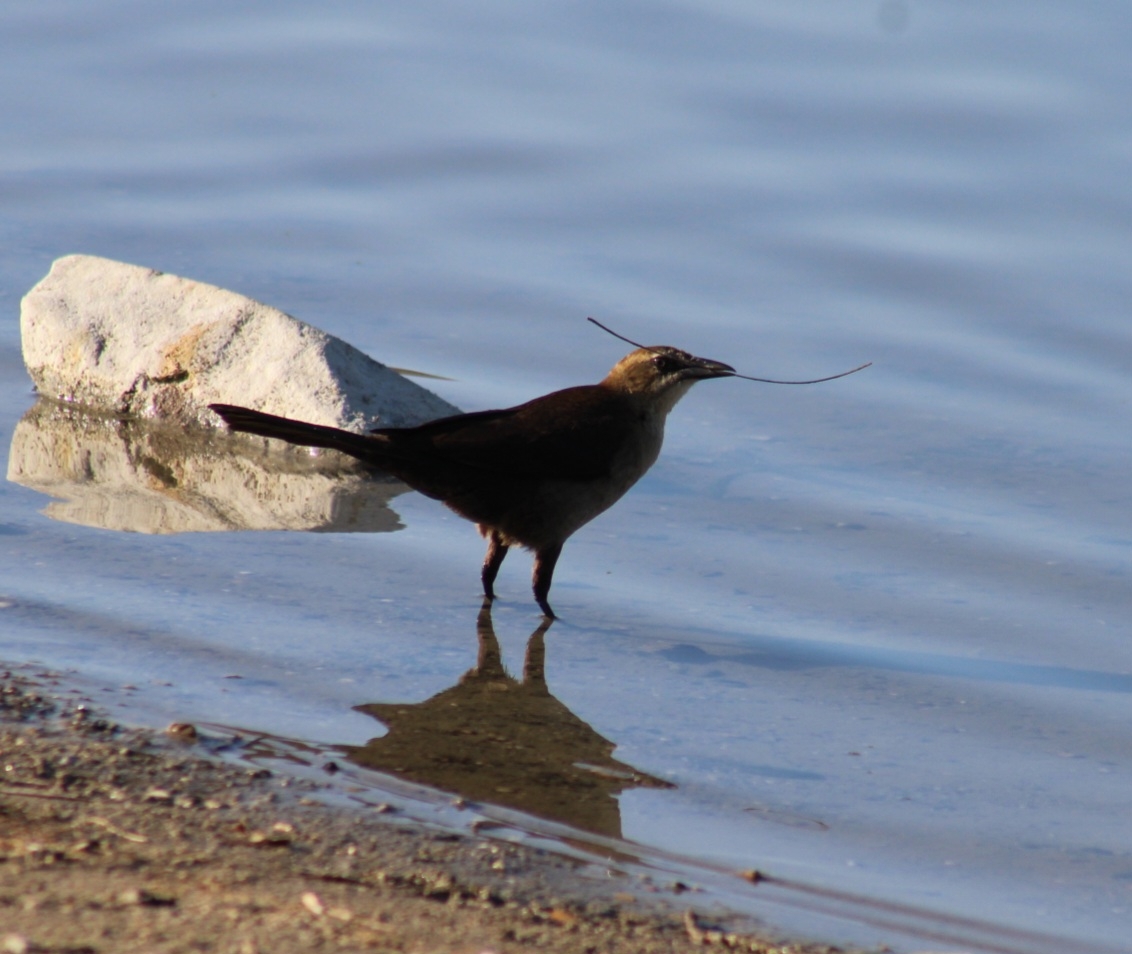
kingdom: Animalia
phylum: Chordata
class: Aves
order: Passeriformes
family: Icteridae
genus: Quiscalus
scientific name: Quiscalus mexicanus
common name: Great-tailed grackle
